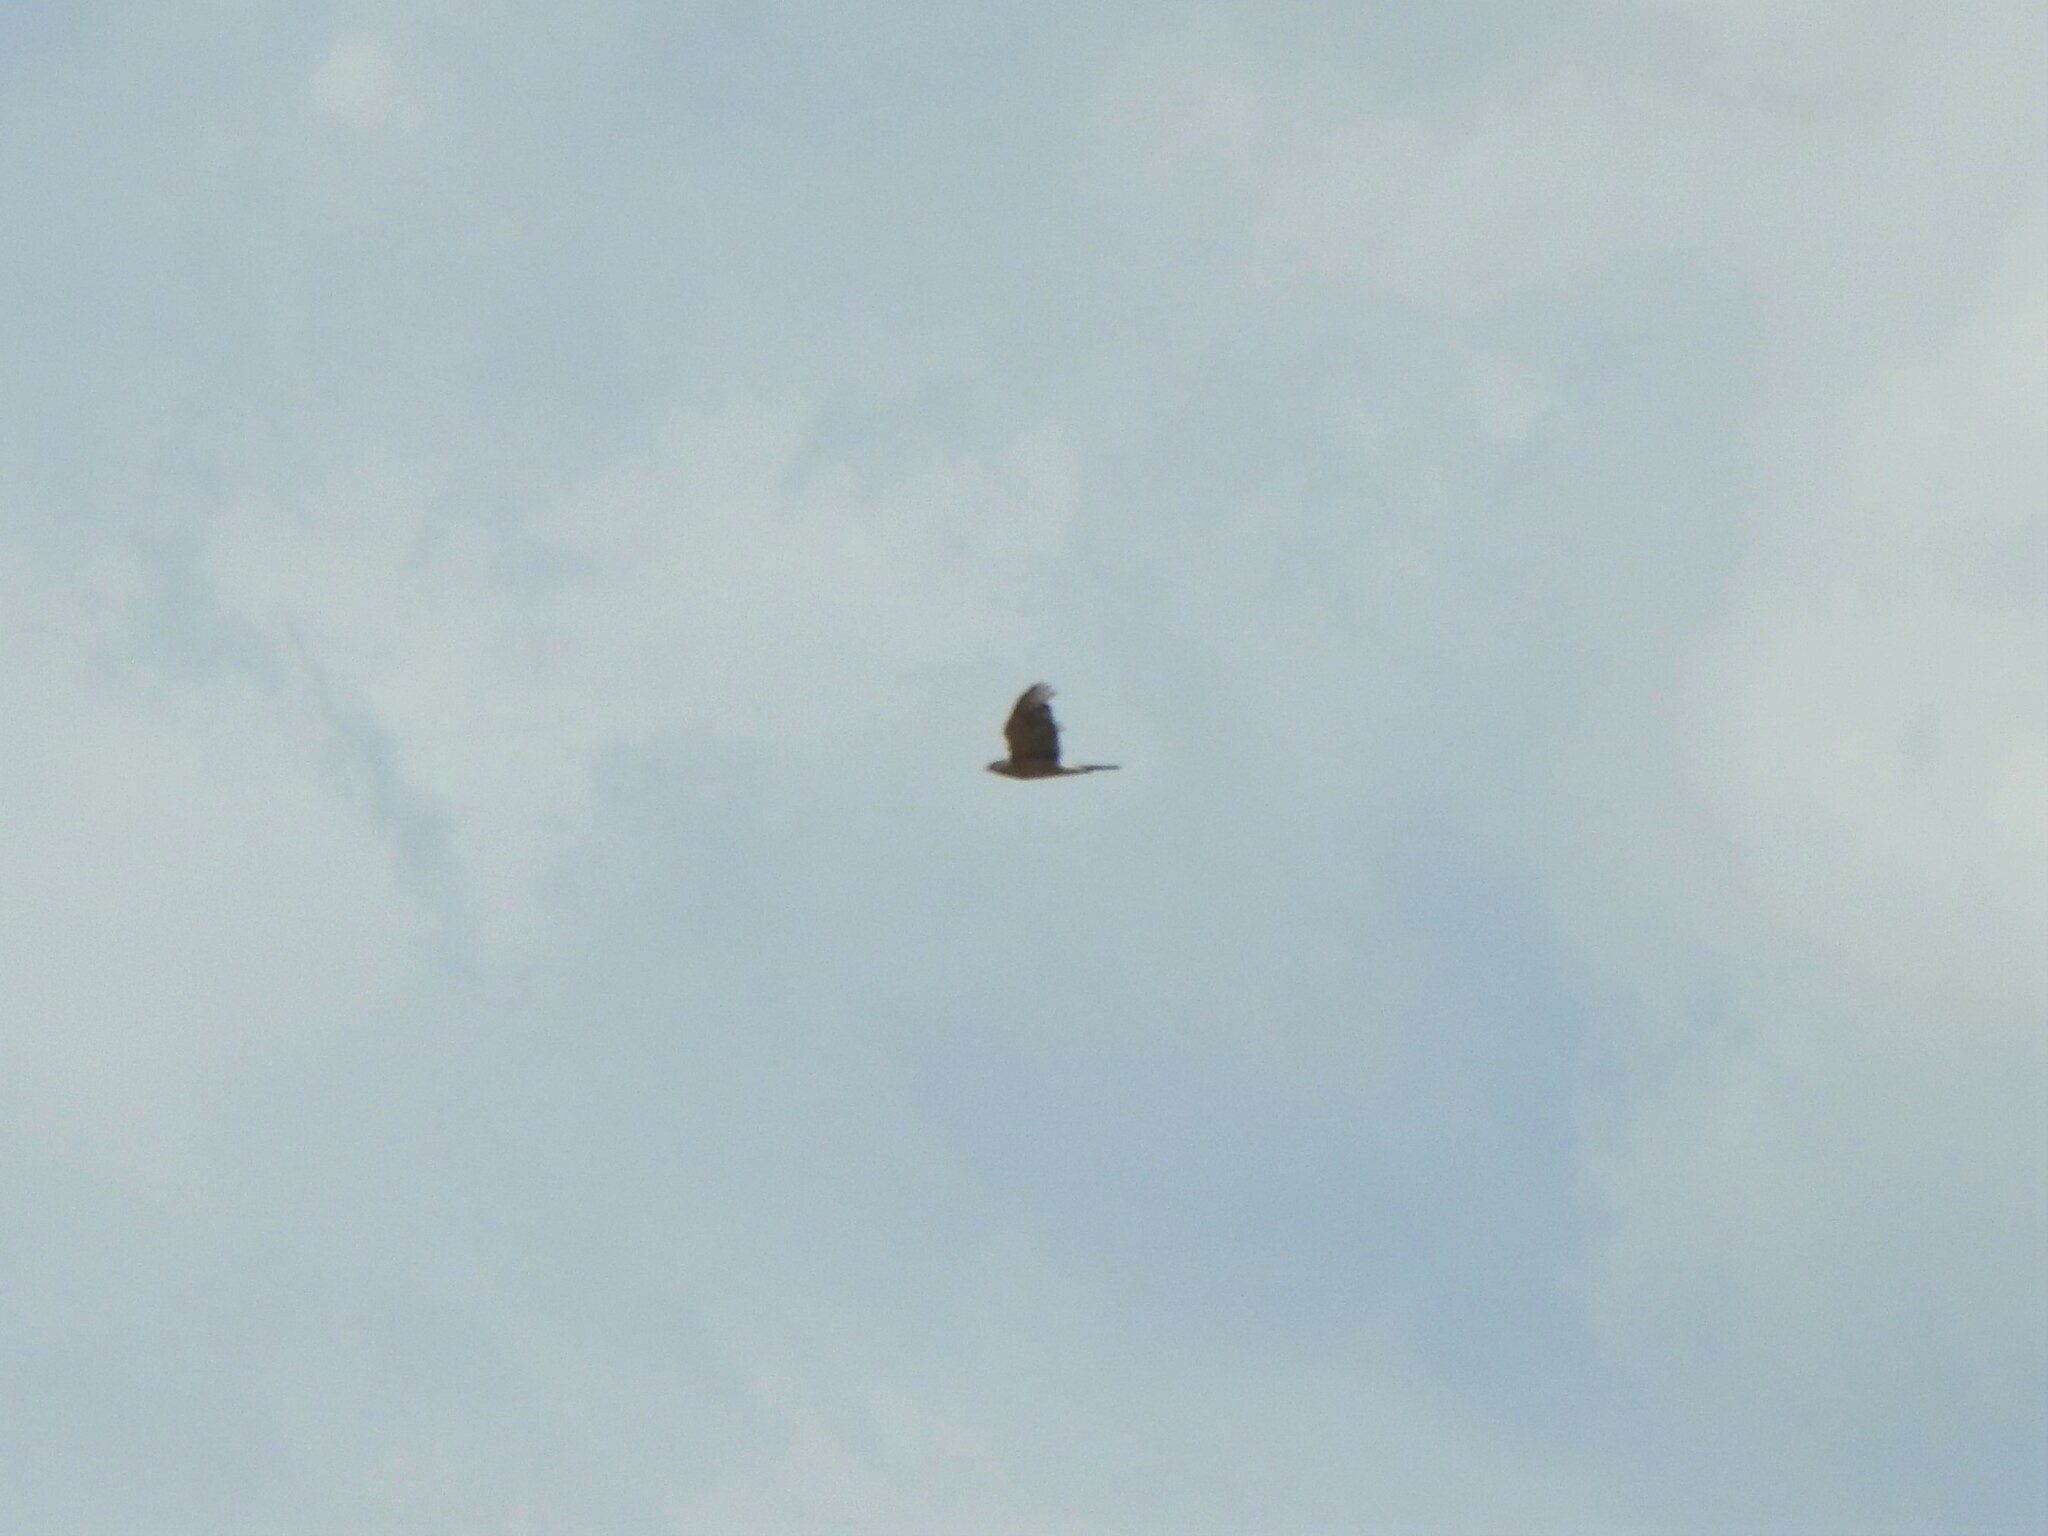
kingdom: Animalia
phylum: Chordata
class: Aves
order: Accipitriformes
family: Accipitridae
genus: Accipiter
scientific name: Accipiter cooperii
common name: Cooper's hawk
